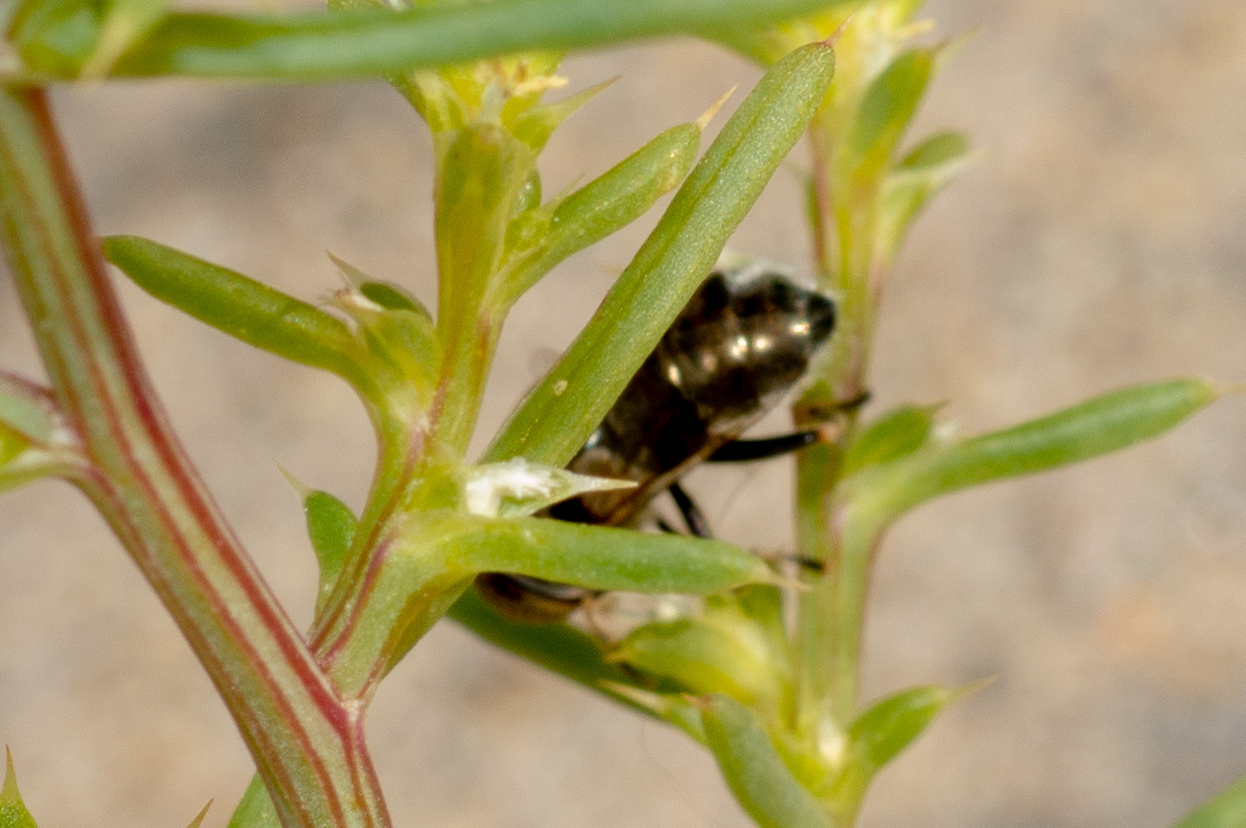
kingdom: Animalia
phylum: Arthropoda
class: Insecta
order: Diptera
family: Syrphidae
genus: Eristalinus
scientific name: Eristalinus aeneus
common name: Syrphid fly
